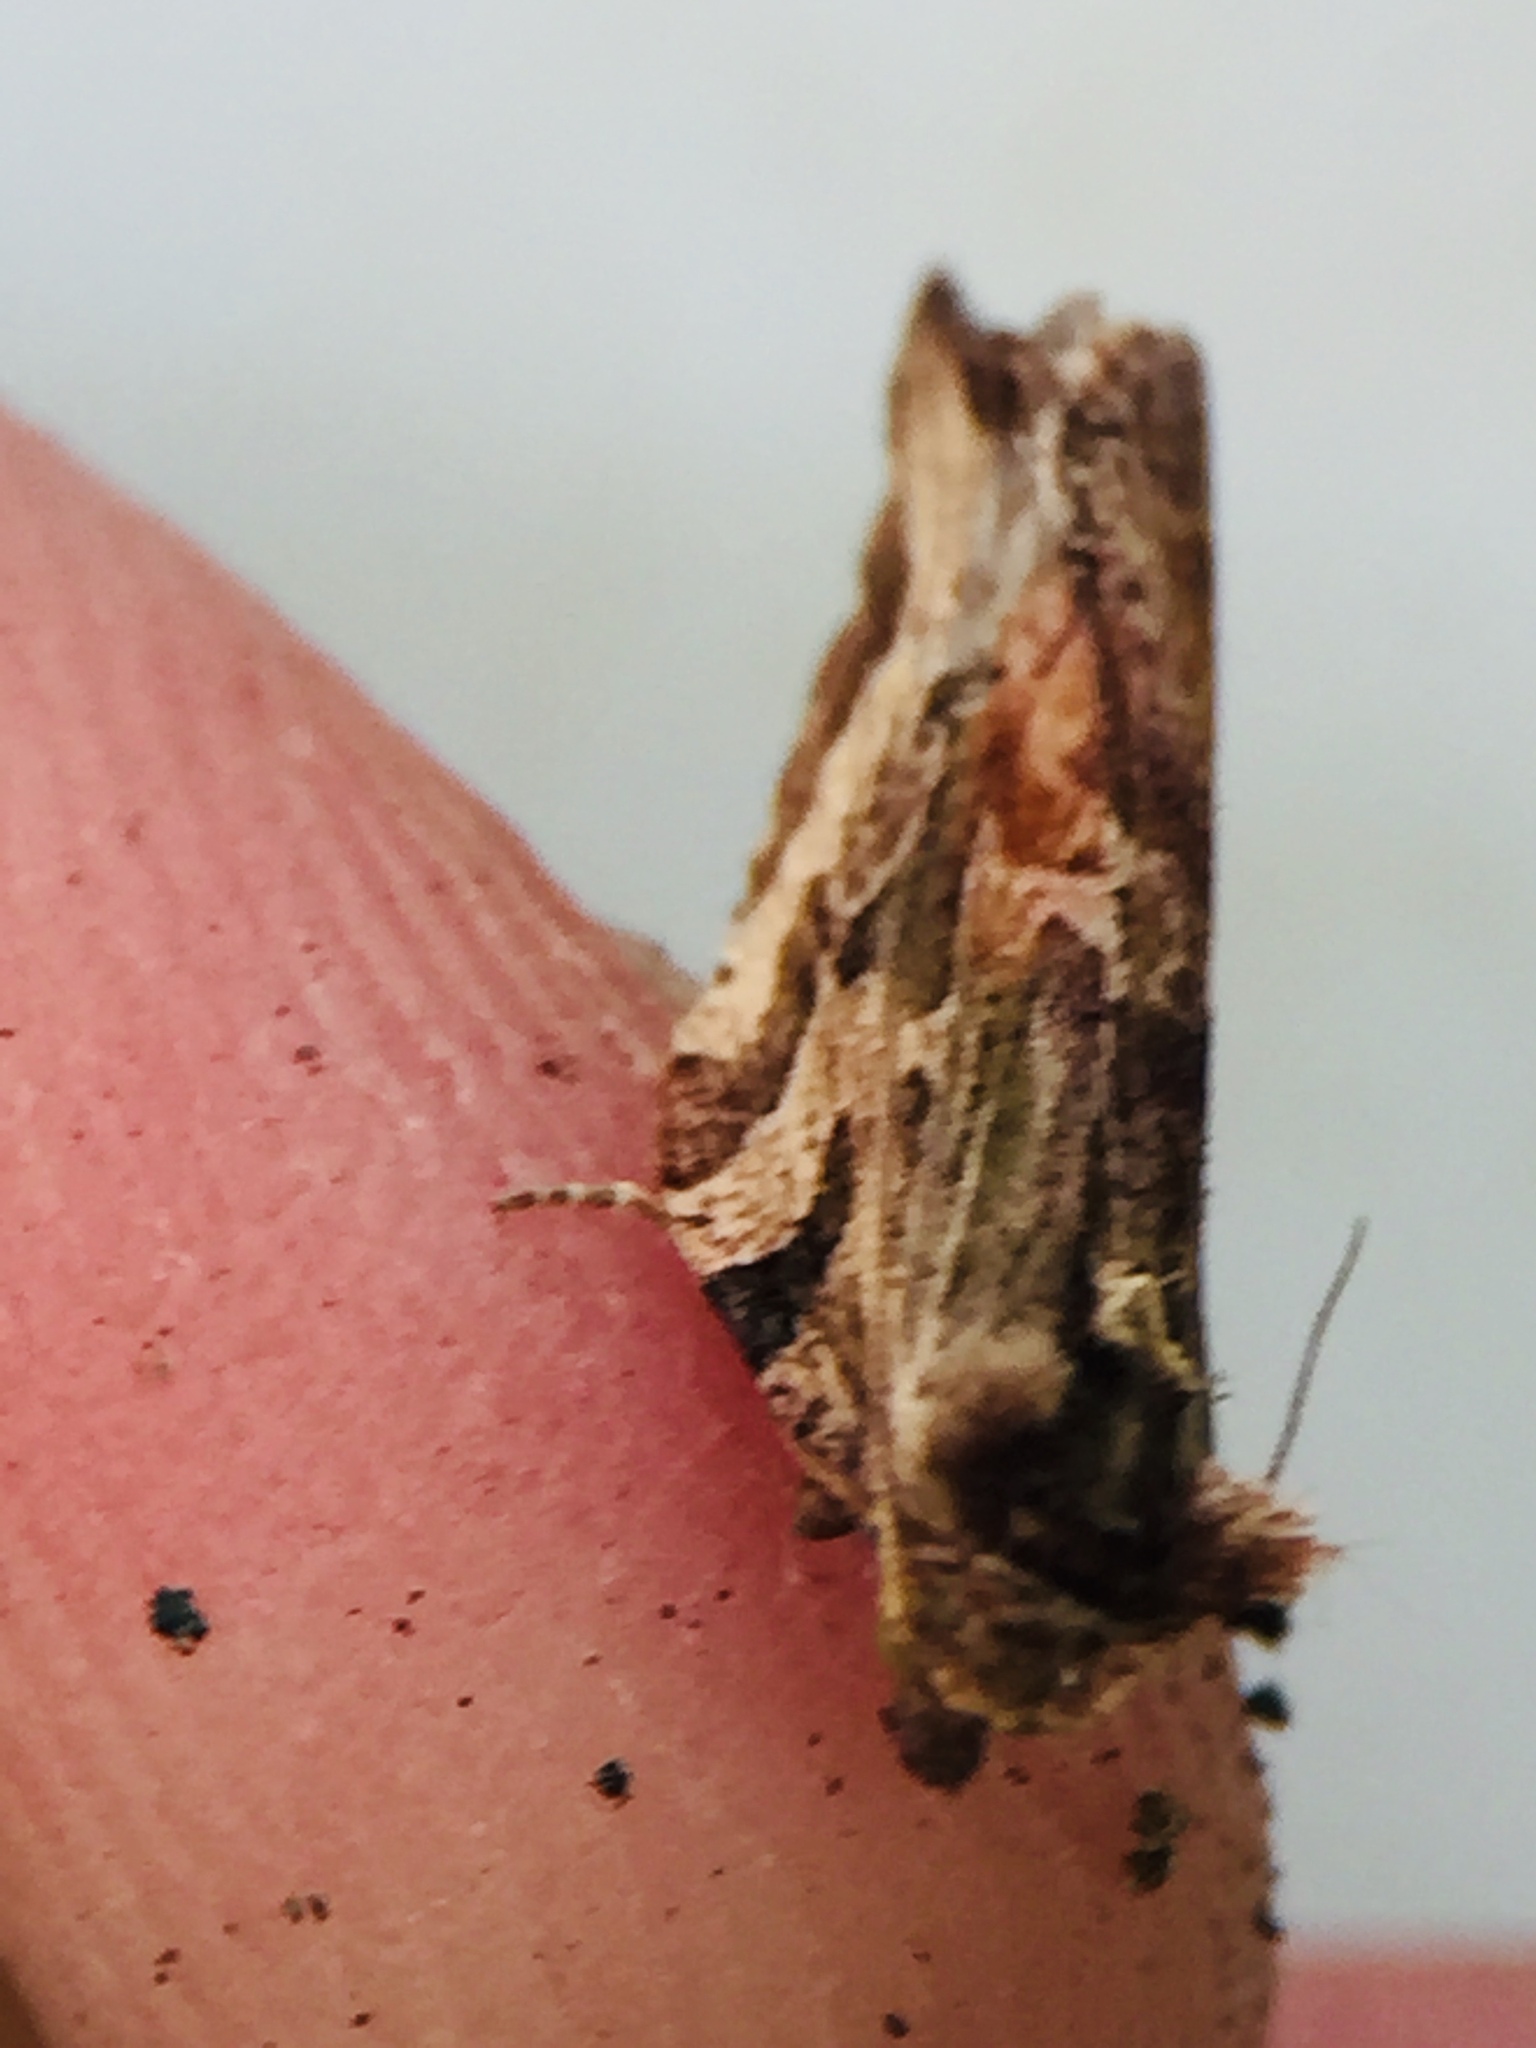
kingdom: Animalia
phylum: Arthropoda
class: Insecta
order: Lepidoptera
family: Tortricidae
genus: Epalxiphora
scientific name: Epalxiphora axenana
